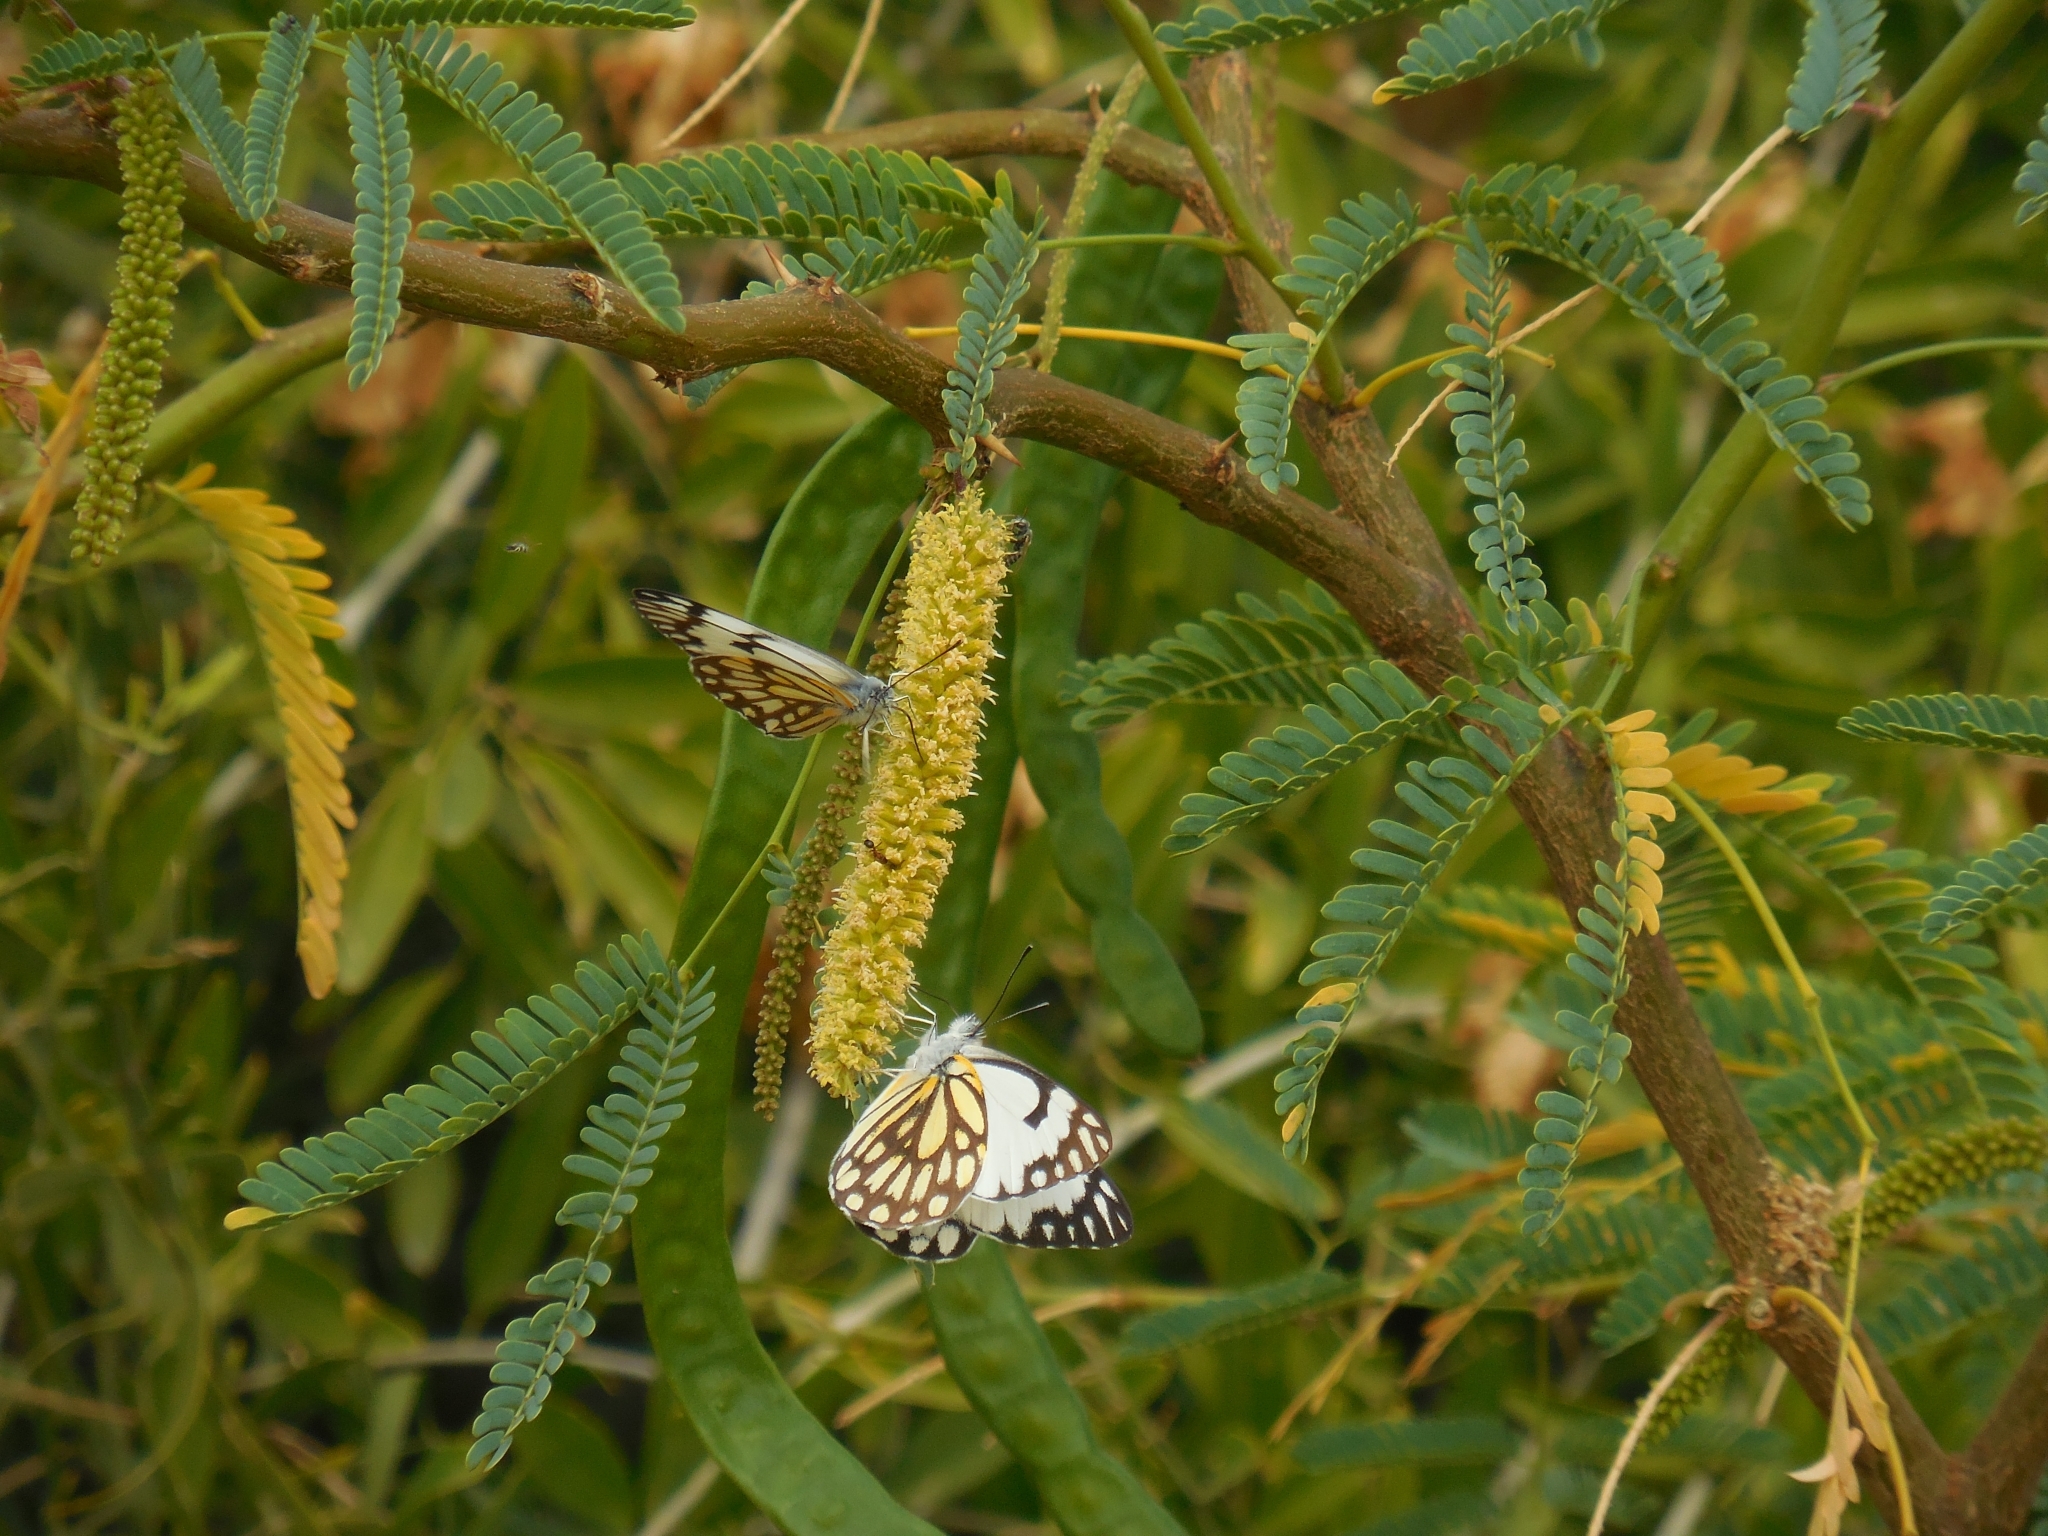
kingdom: Plantae
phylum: Tracheophyta
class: Magnoliopsida
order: Fabales
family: Fabaceae
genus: Prosopis
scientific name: Prosopis juliflora
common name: Mesquite
